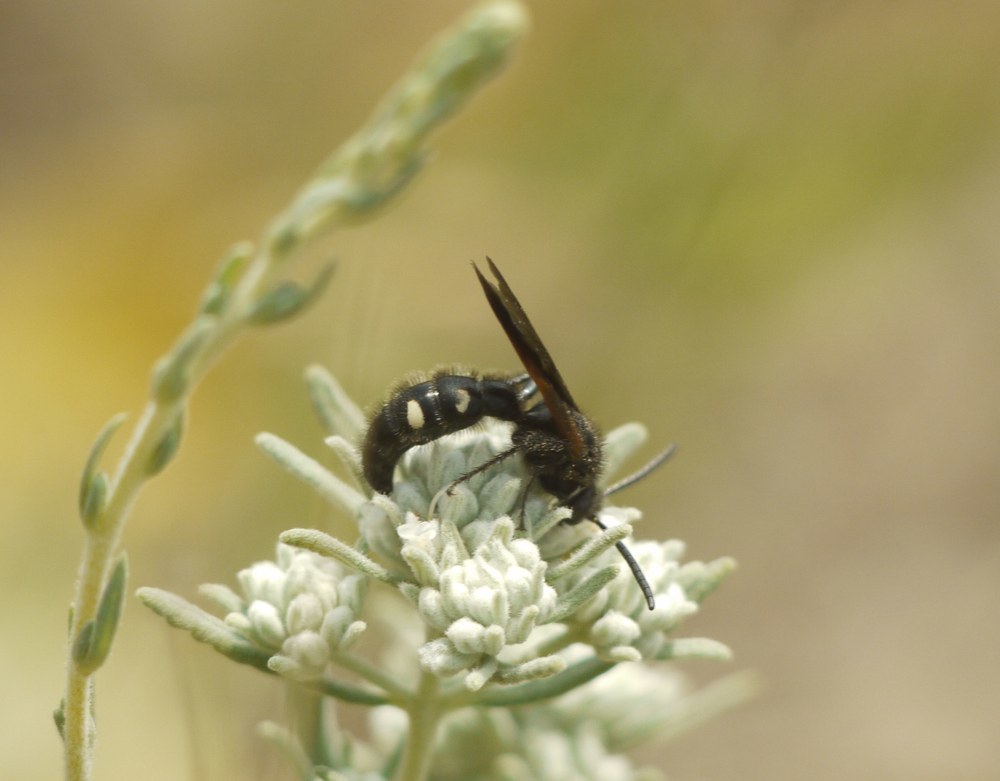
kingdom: Animalia
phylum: Arthropoda
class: Insecta
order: Hymenoptera
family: Vespidae
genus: Vespa
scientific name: Vespa sexmaculata
